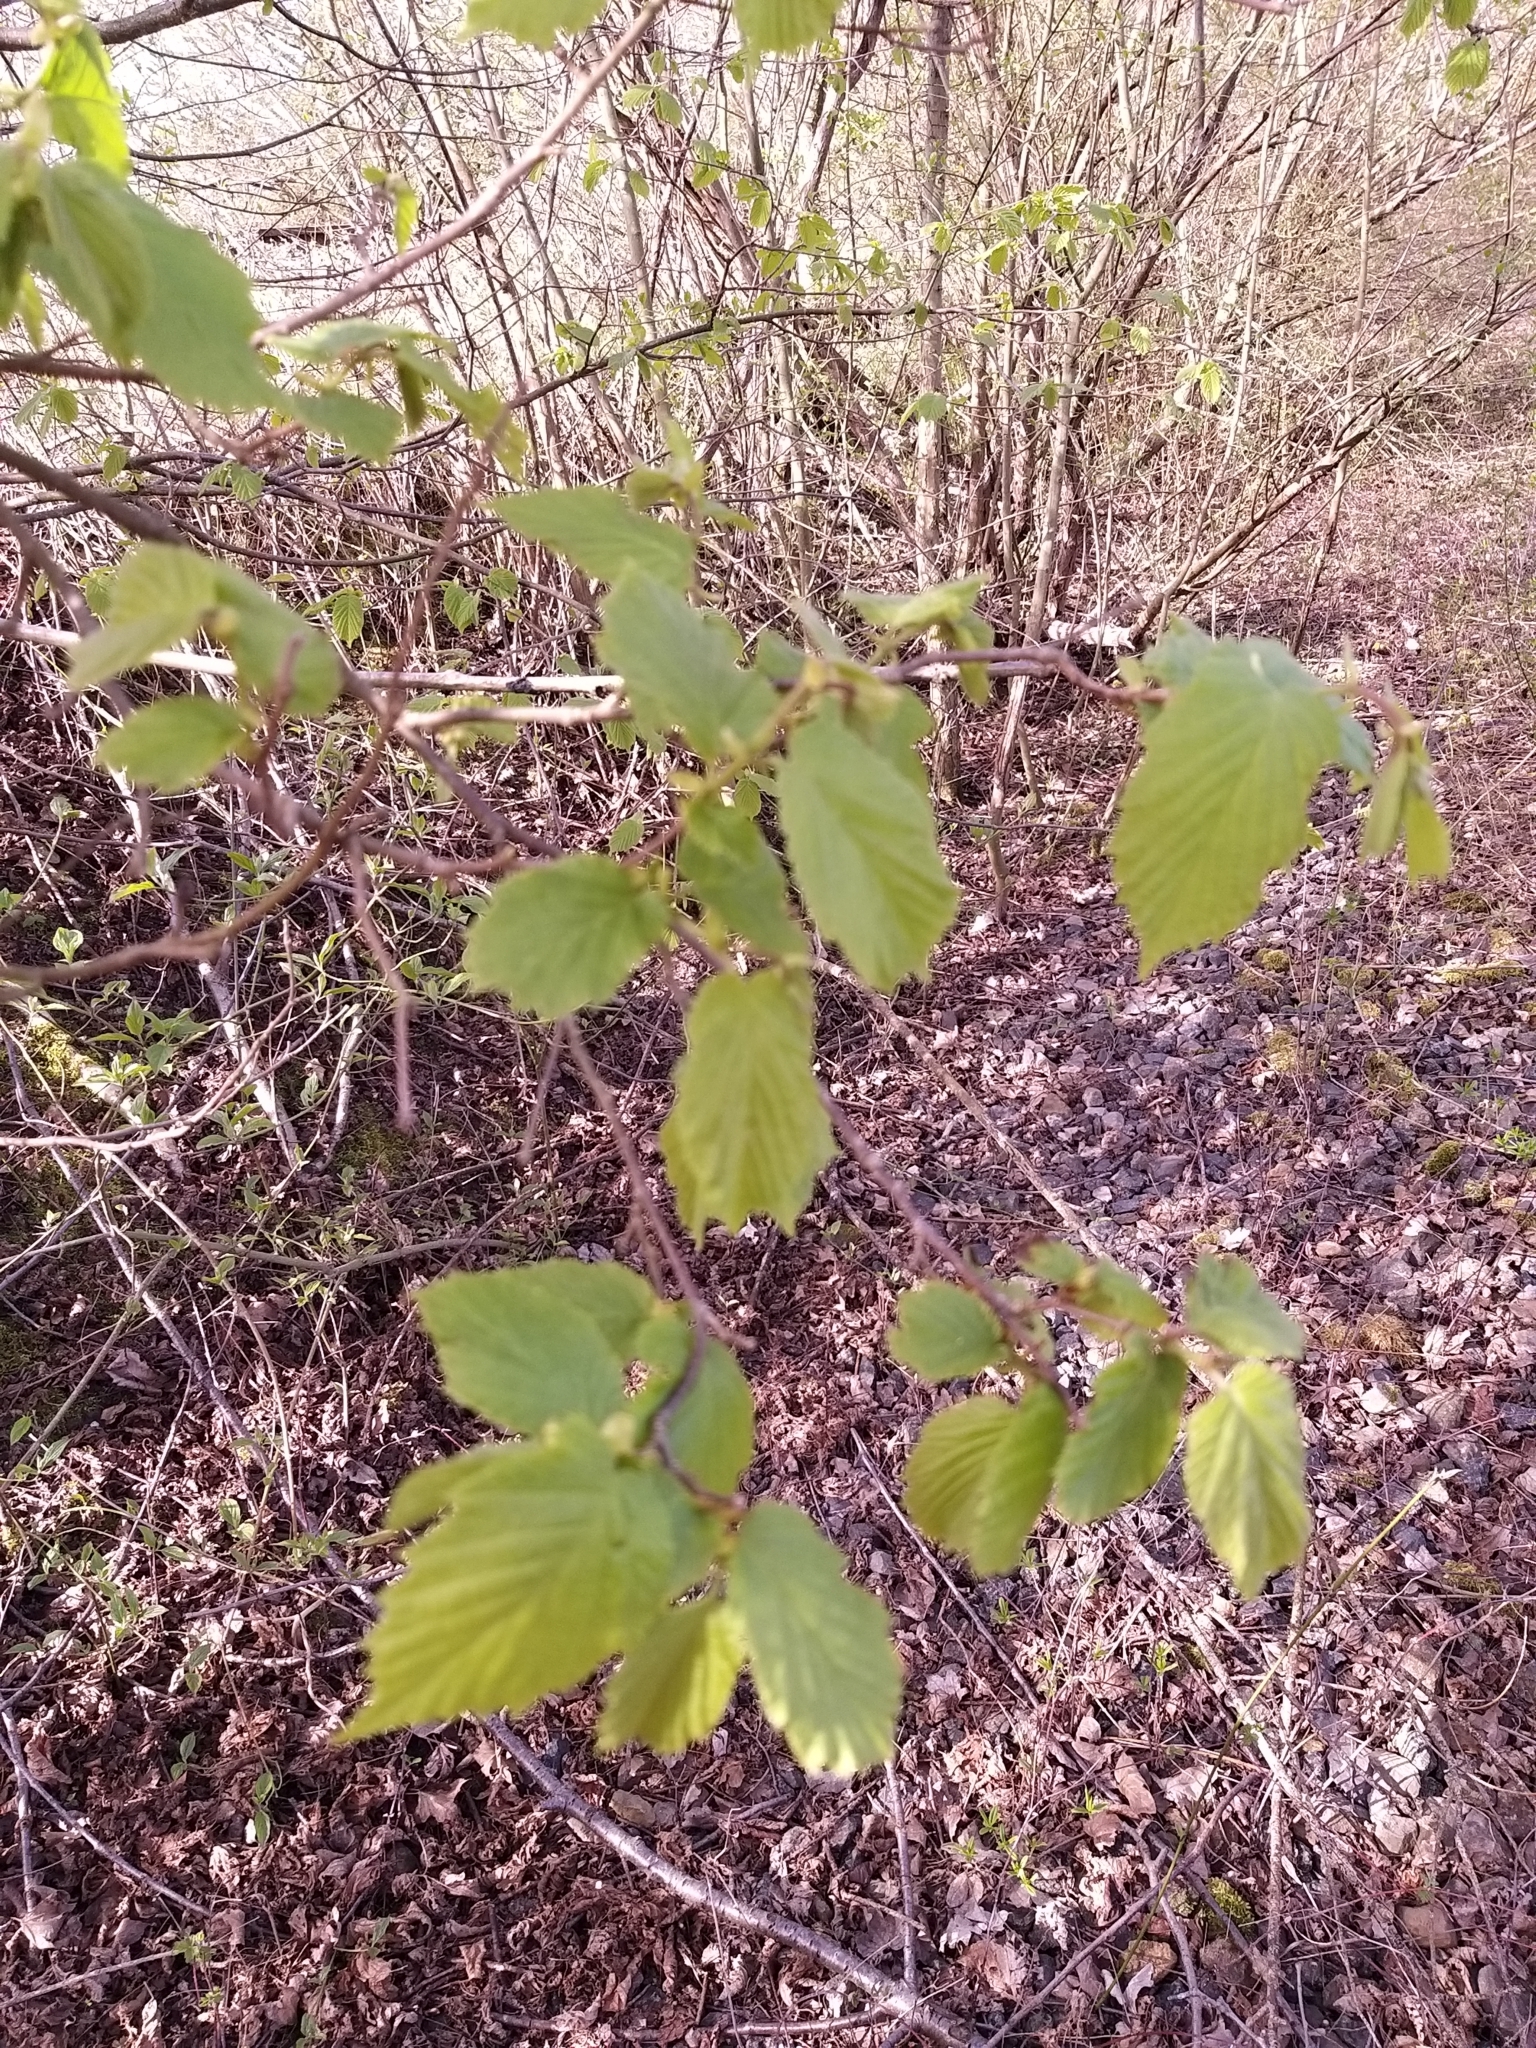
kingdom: Plantae
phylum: Tracheophyta
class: Magnoliopsida
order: Fagales
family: Betulaceae
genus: Corylus
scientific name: Corylus avellana
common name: European hazel
